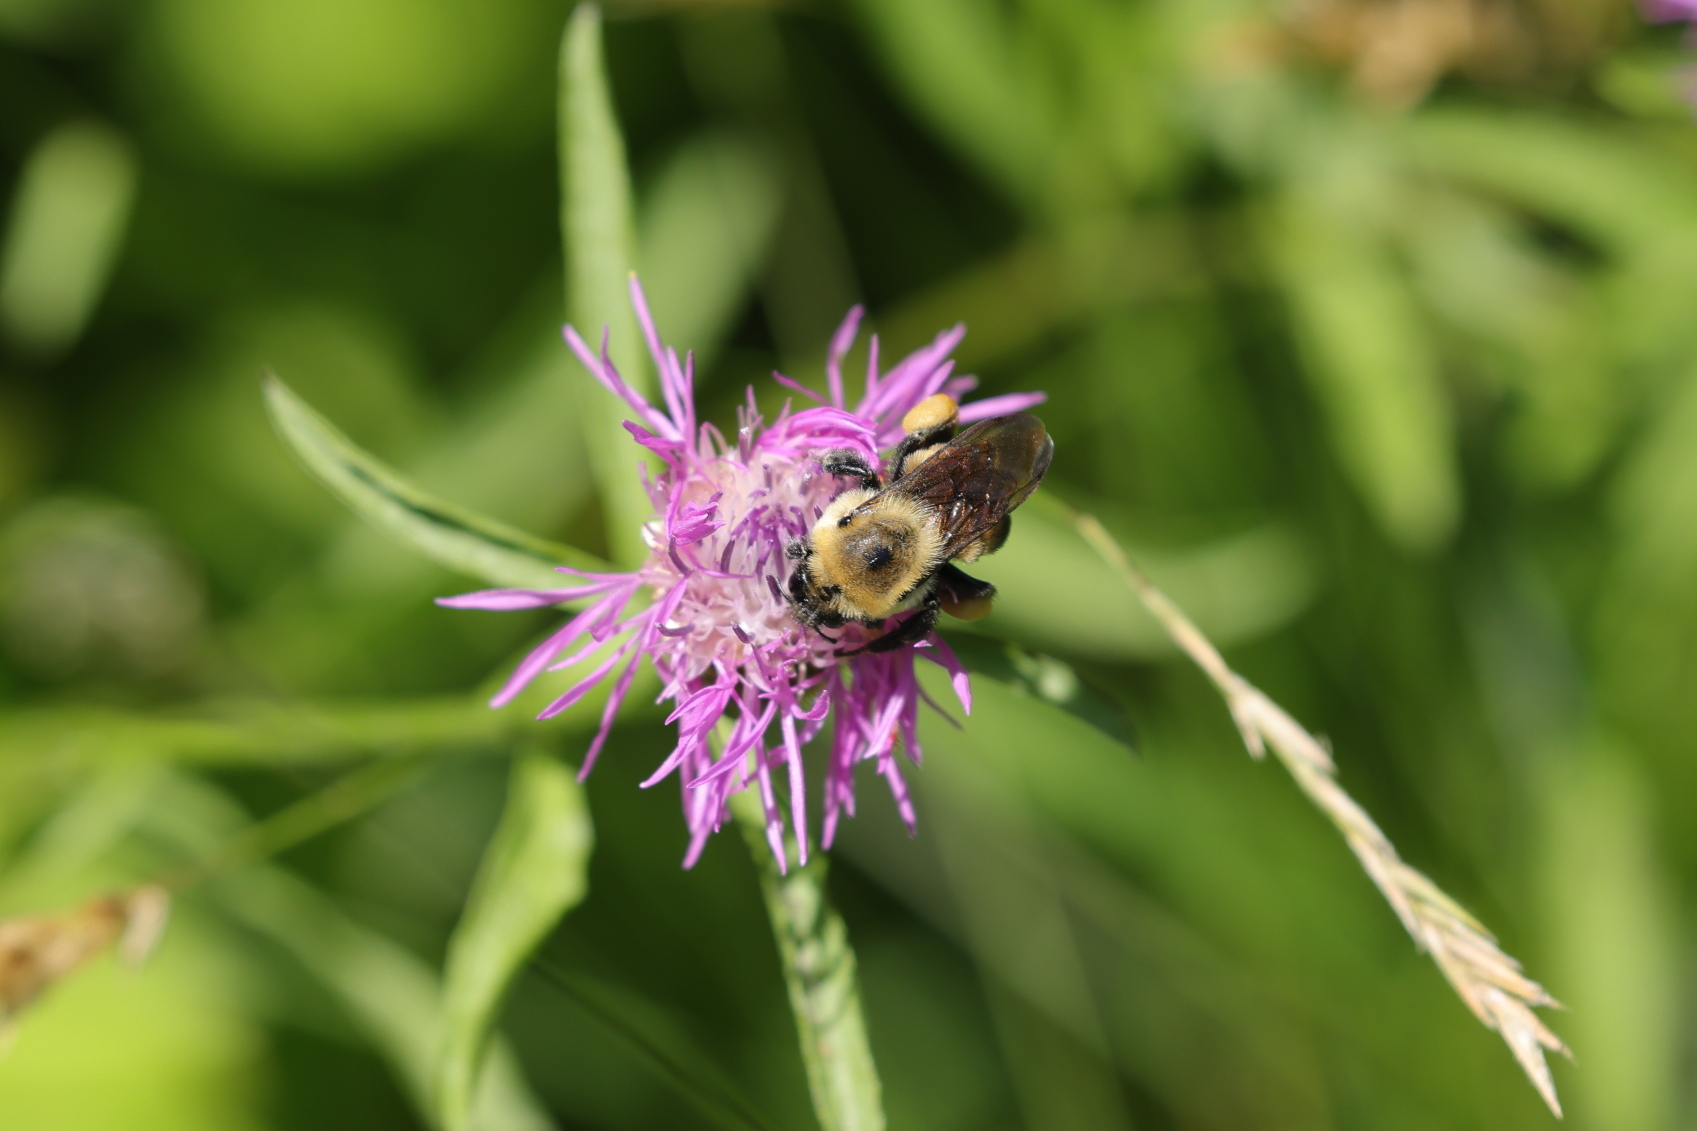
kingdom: Animalia
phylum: Arthropoda
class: Insecta
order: Hymenoptera
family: Apidae
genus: Bombus
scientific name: Bombus griseocollis
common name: Brown-belted bumble bee
